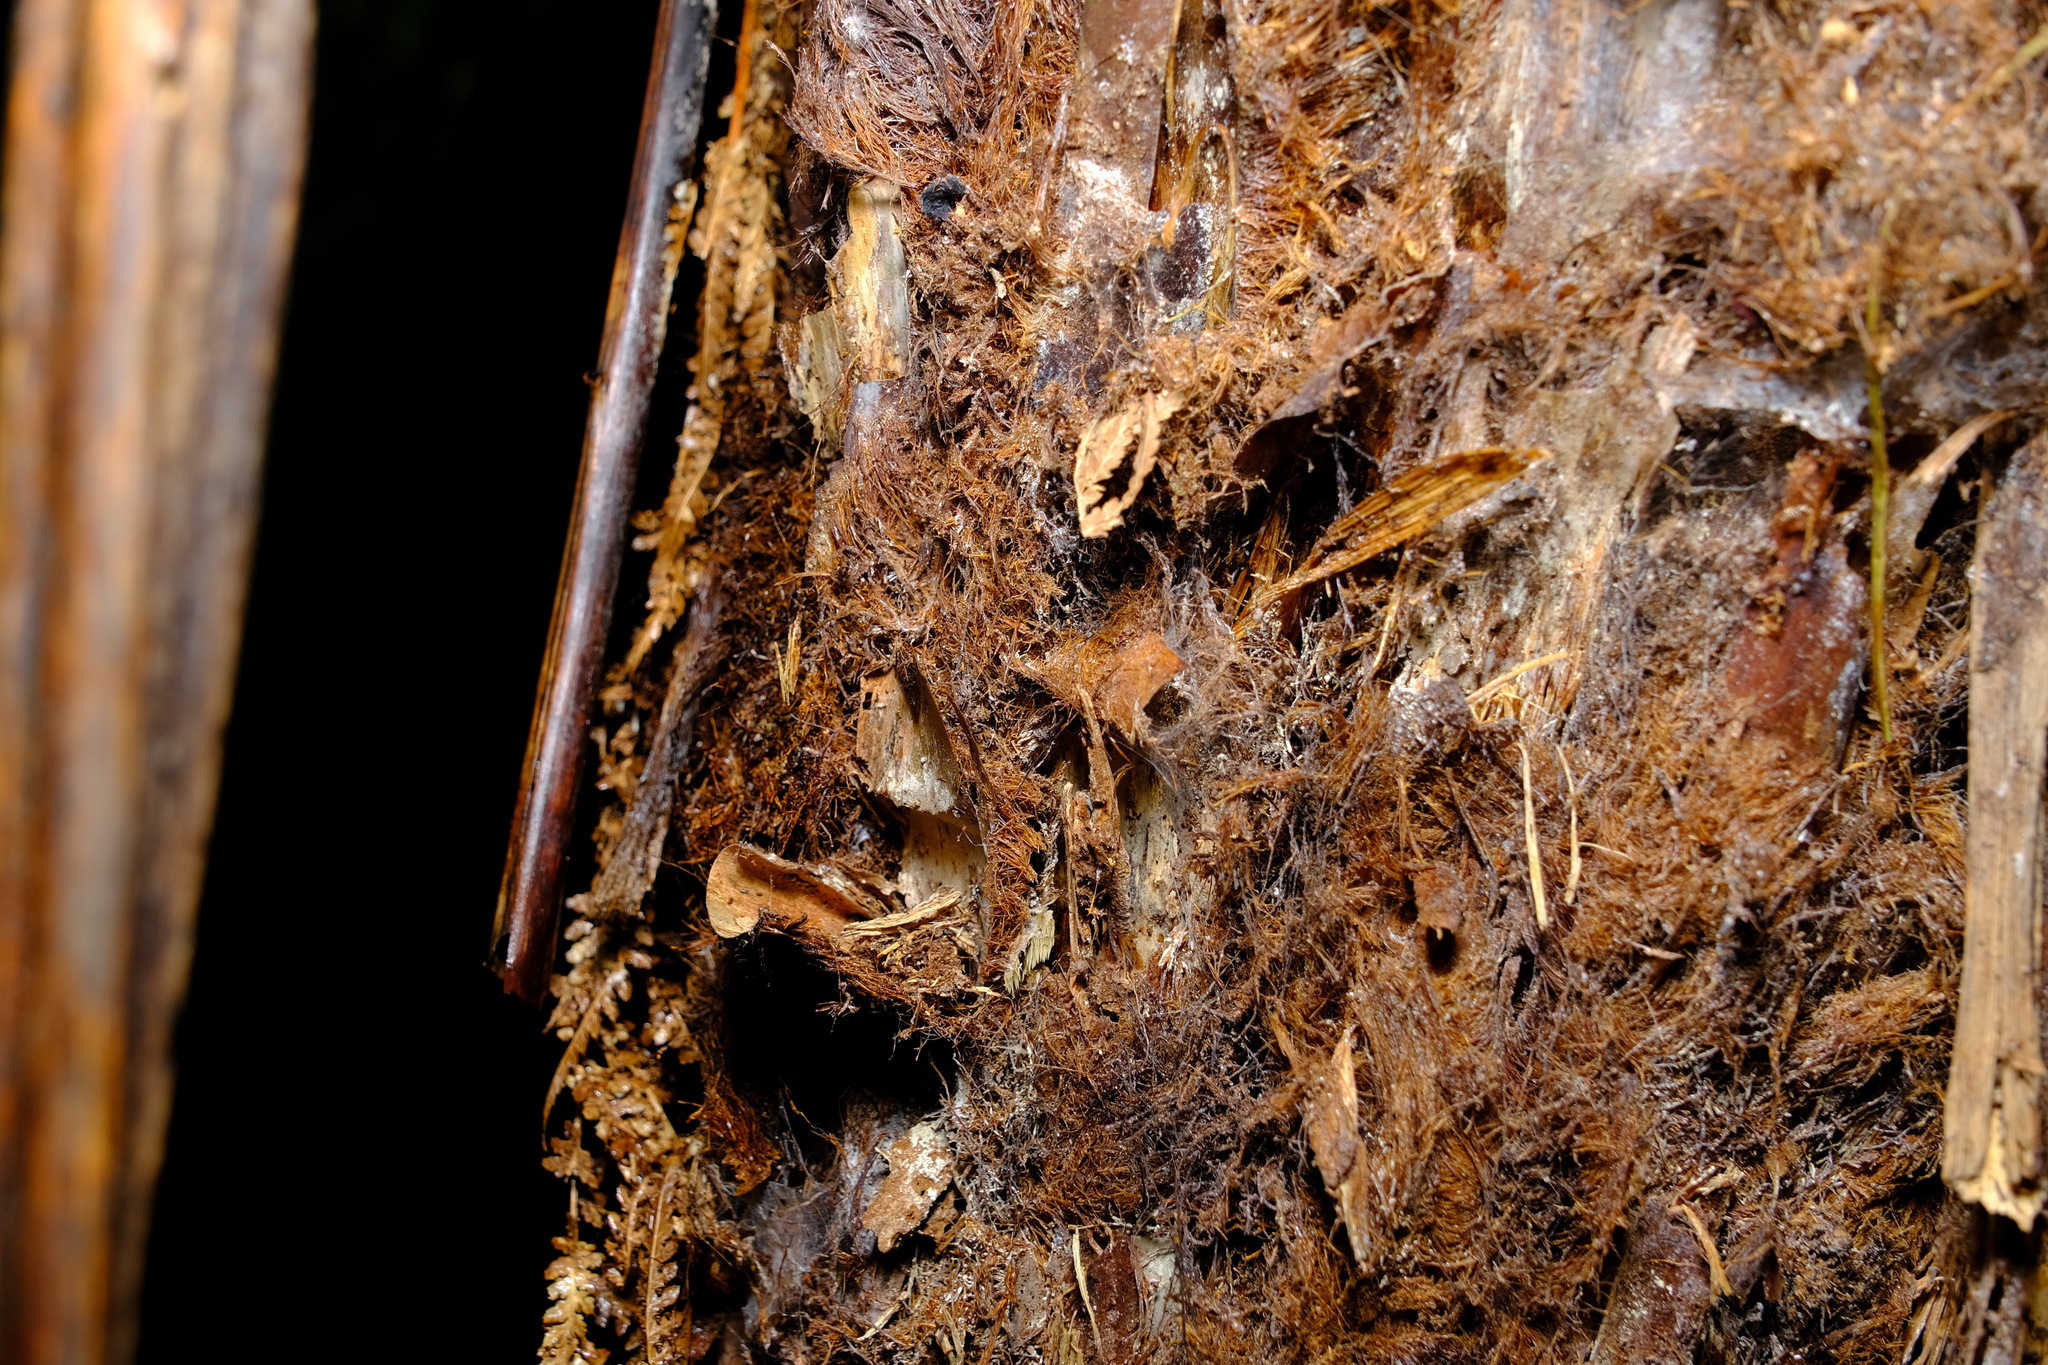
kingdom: Plantae
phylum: Tracheophyta
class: Polypodiopsida
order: Cyatheales
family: Dicksoniaceae
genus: Dicksonia
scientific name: Dicksonia antarctica
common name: Australian treefern
